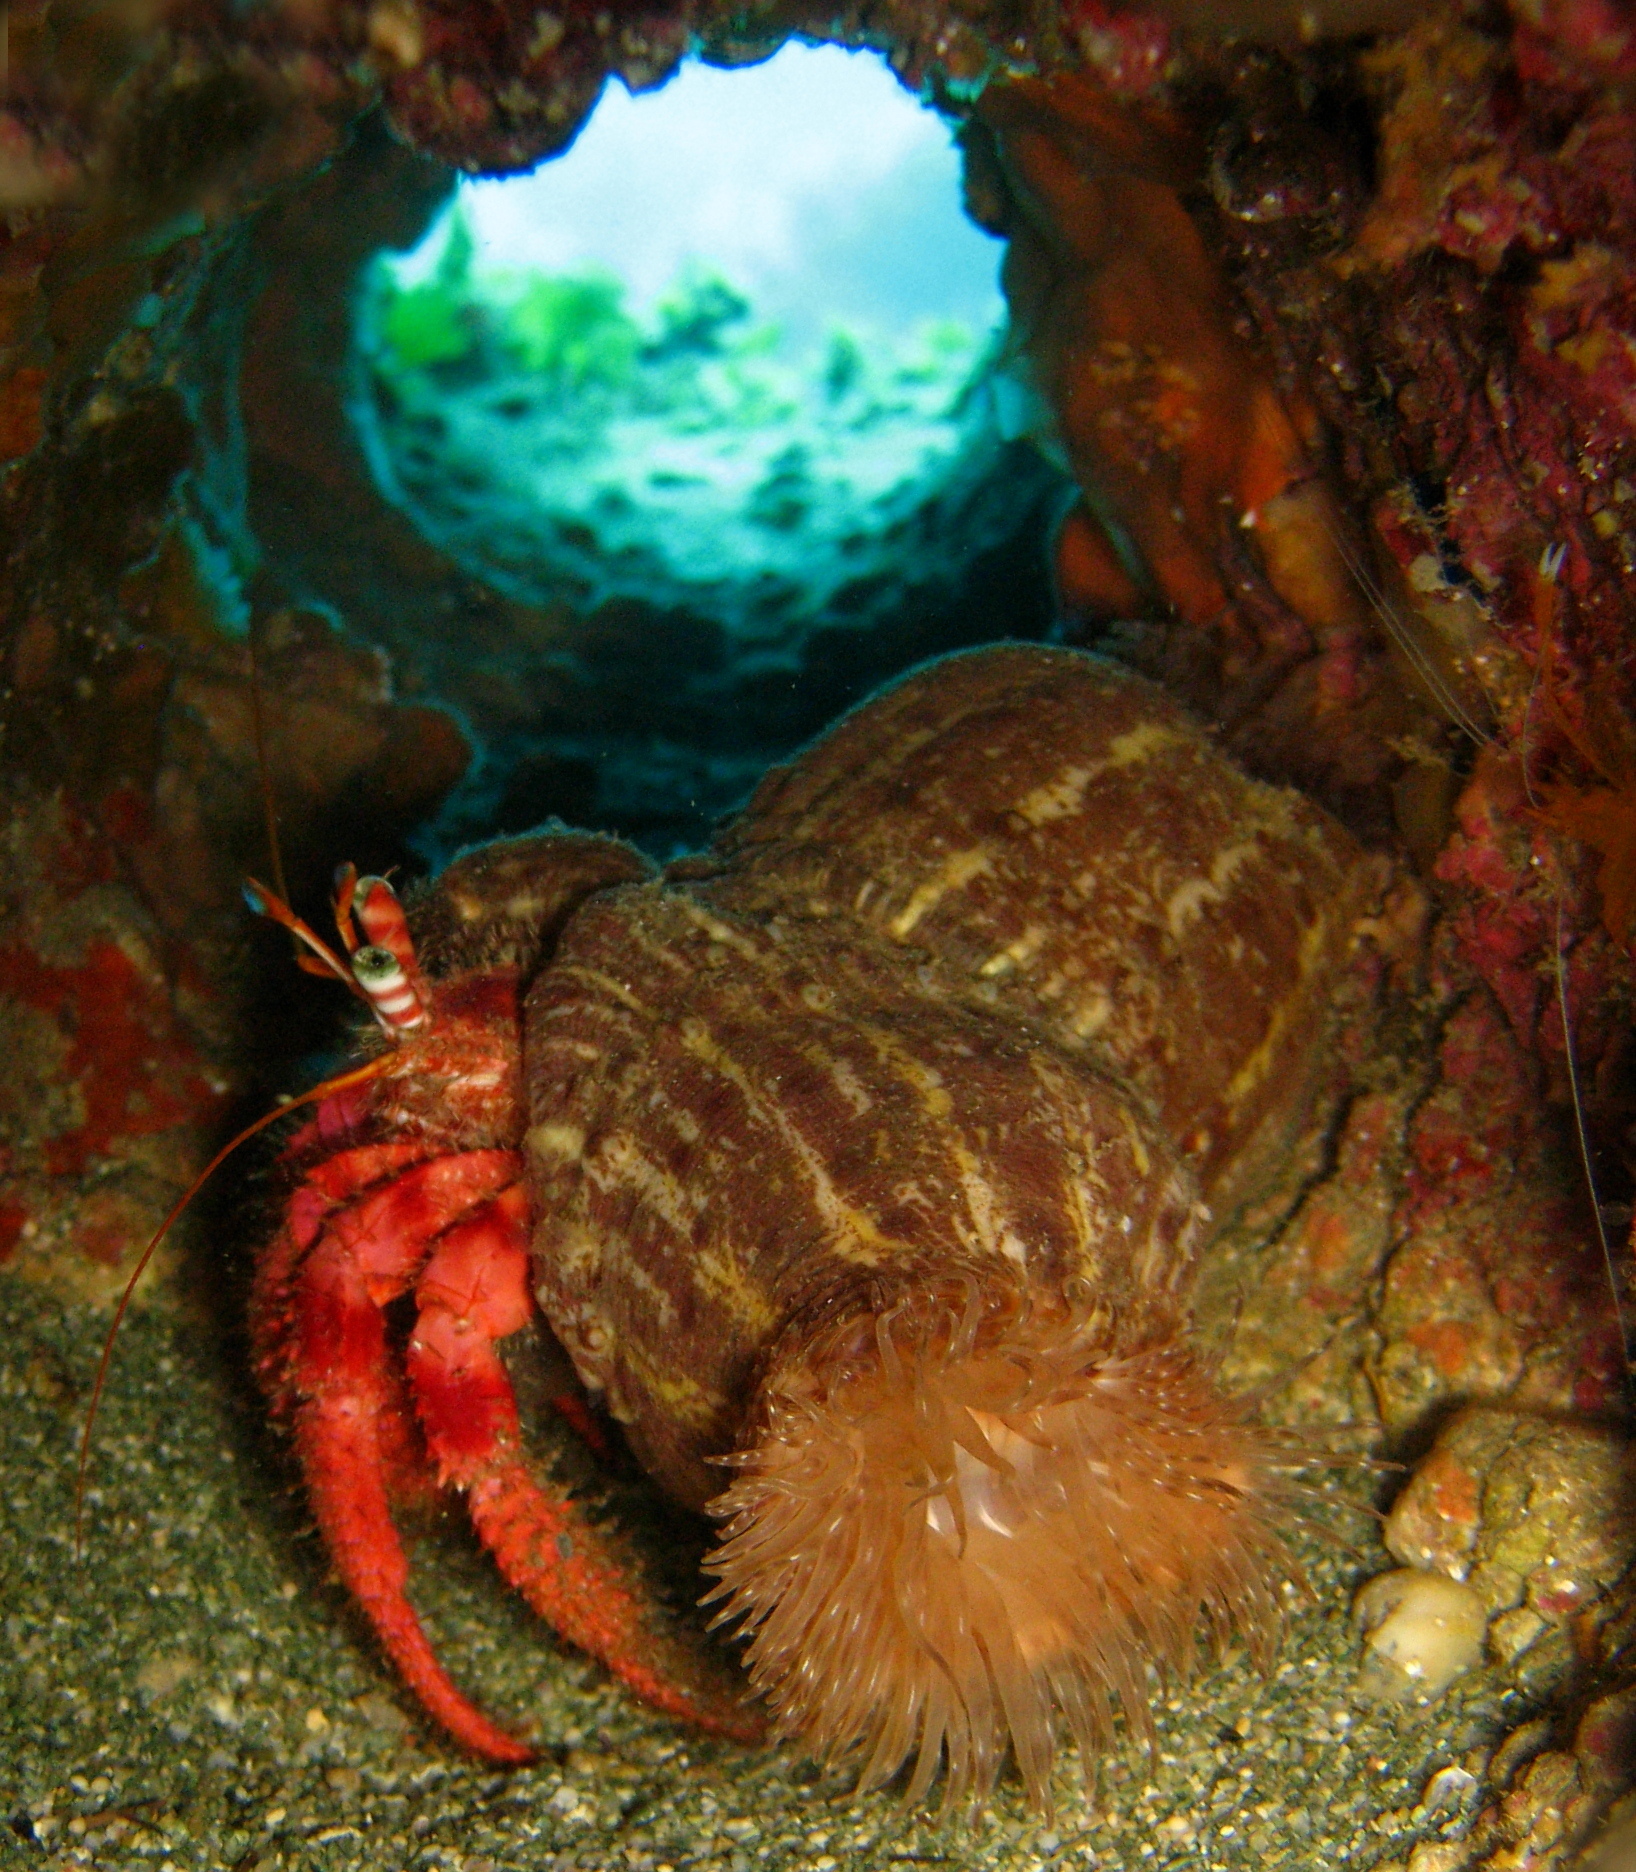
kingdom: Animalia
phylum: Arthropoda
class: Malacostraca
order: Decapoda
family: Diogenidae
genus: Dardanus
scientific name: Dardanus calidus
